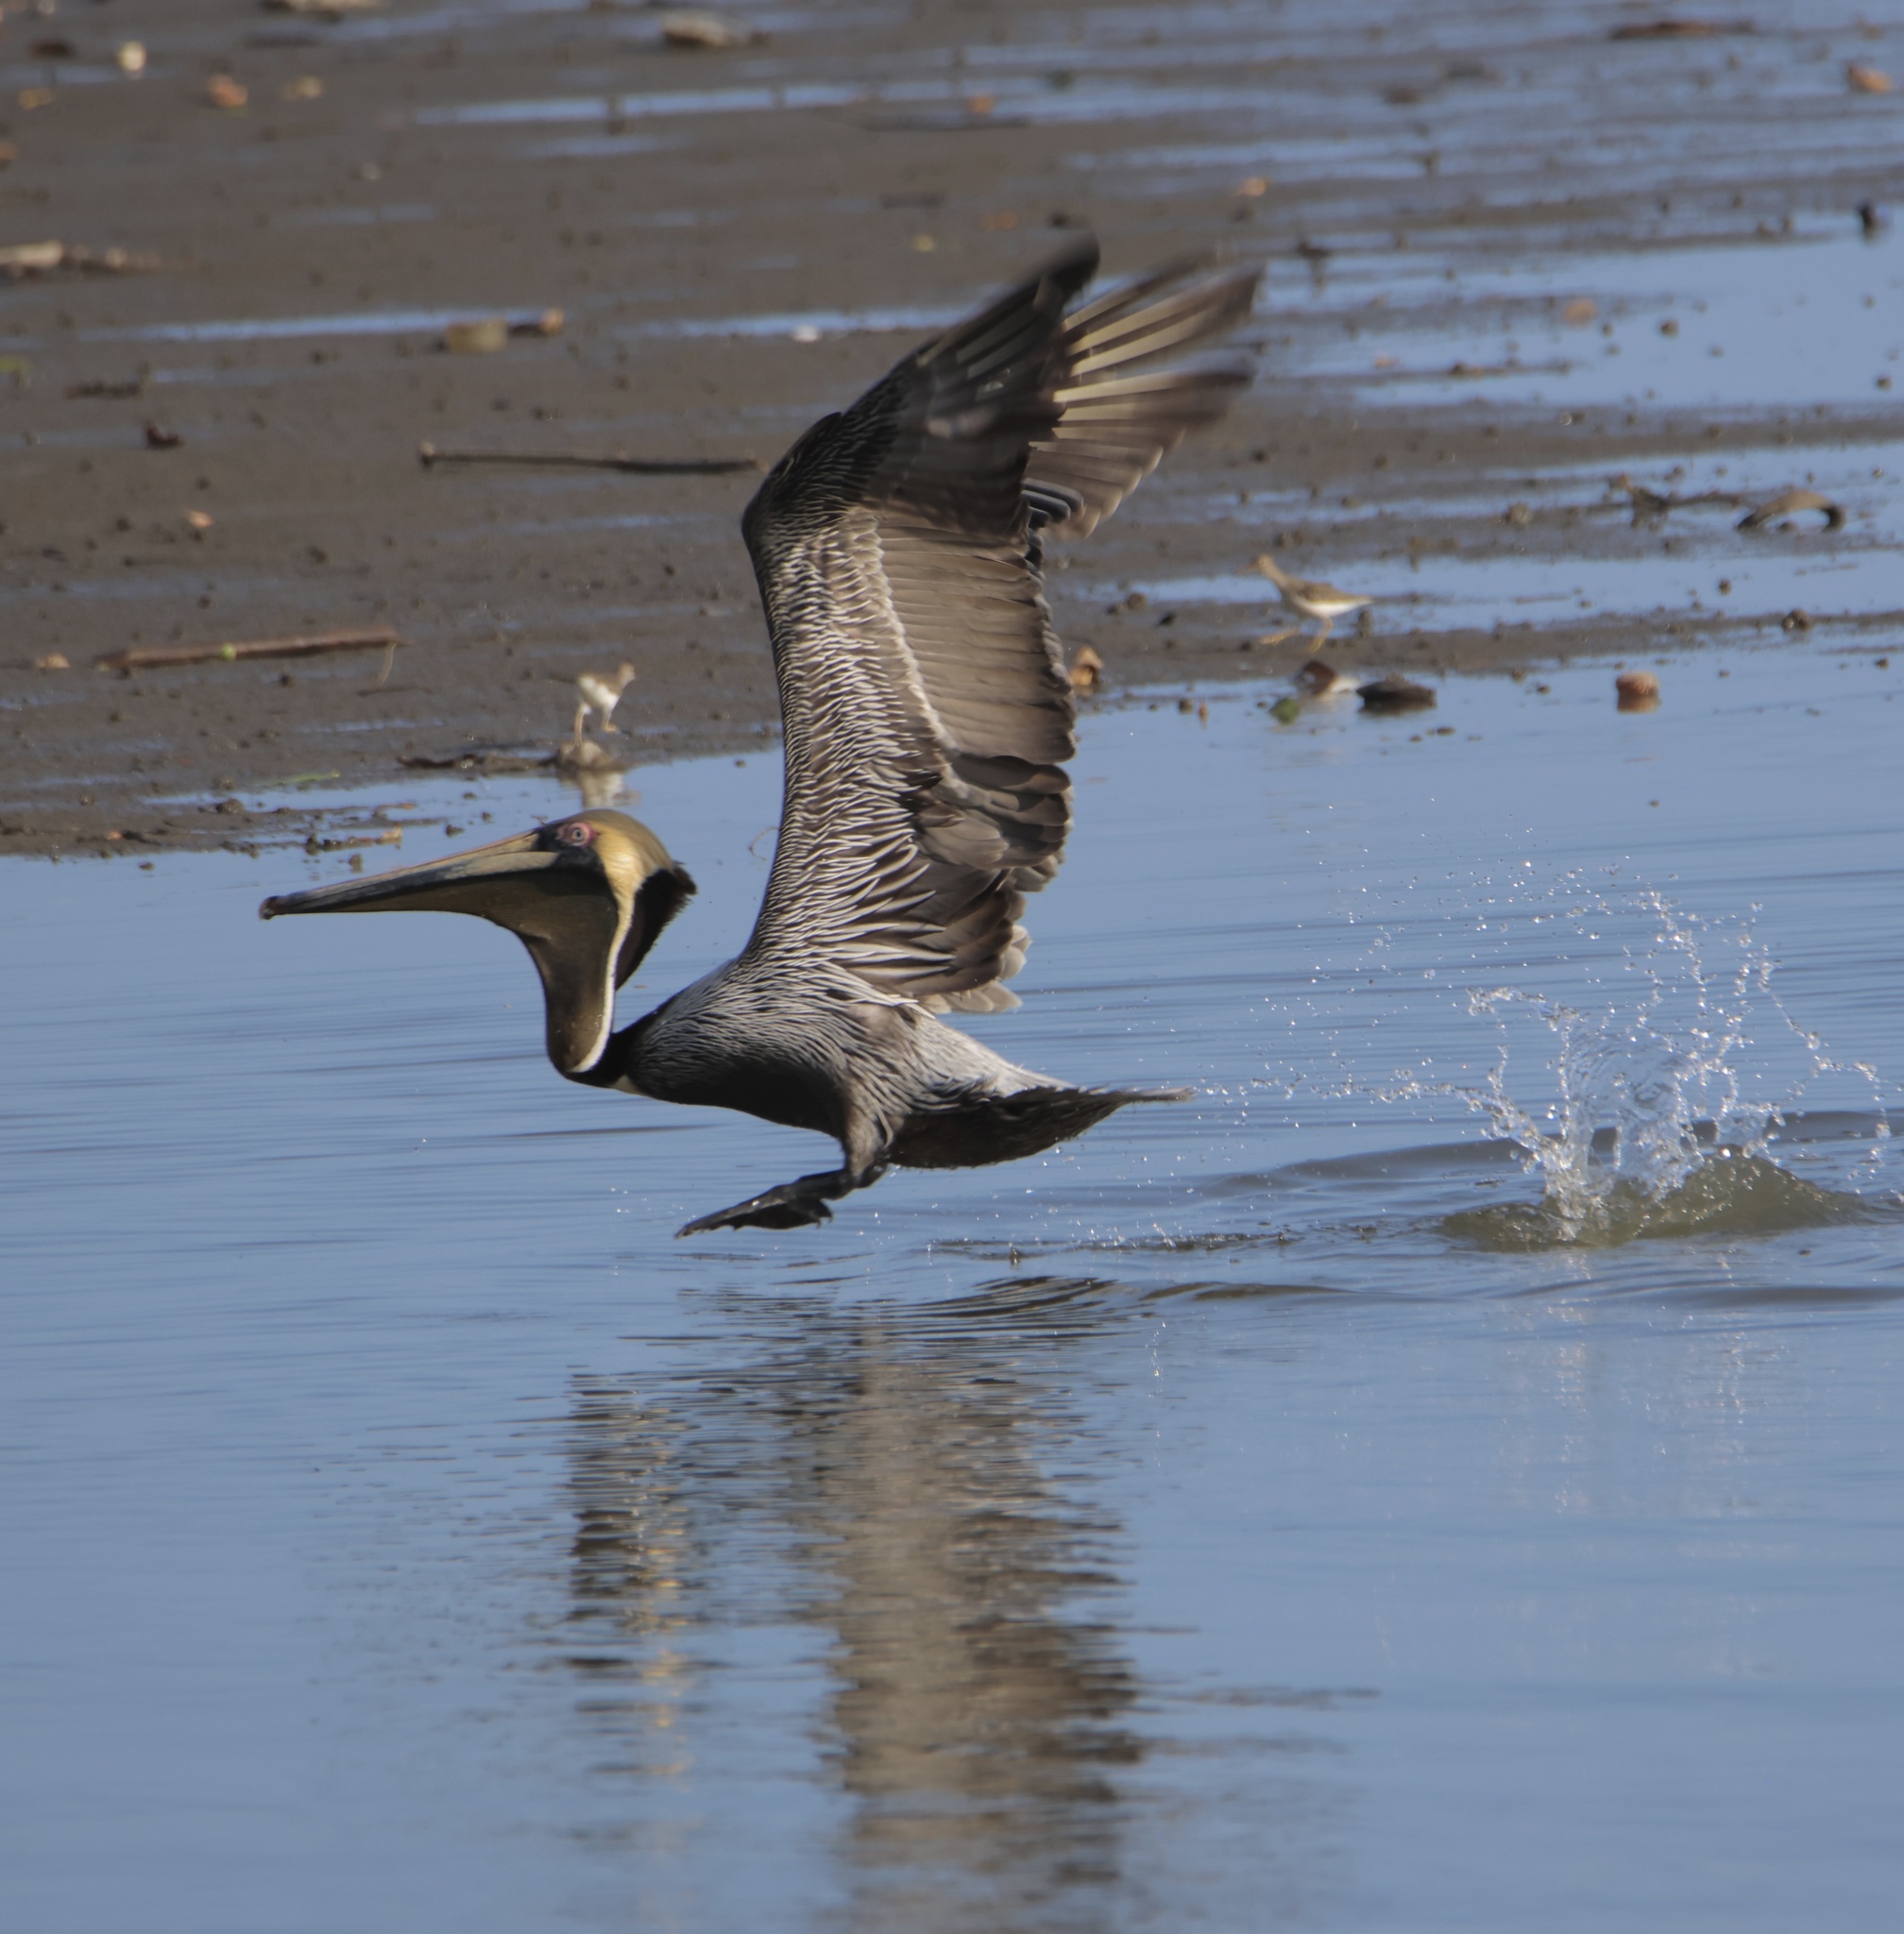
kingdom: Animalia
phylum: Chordata
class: Aves
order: Pelecaniformes
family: Pelecanidae
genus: Pelecanus
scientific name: Pelecanus occidentalis
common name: Brown pelican
